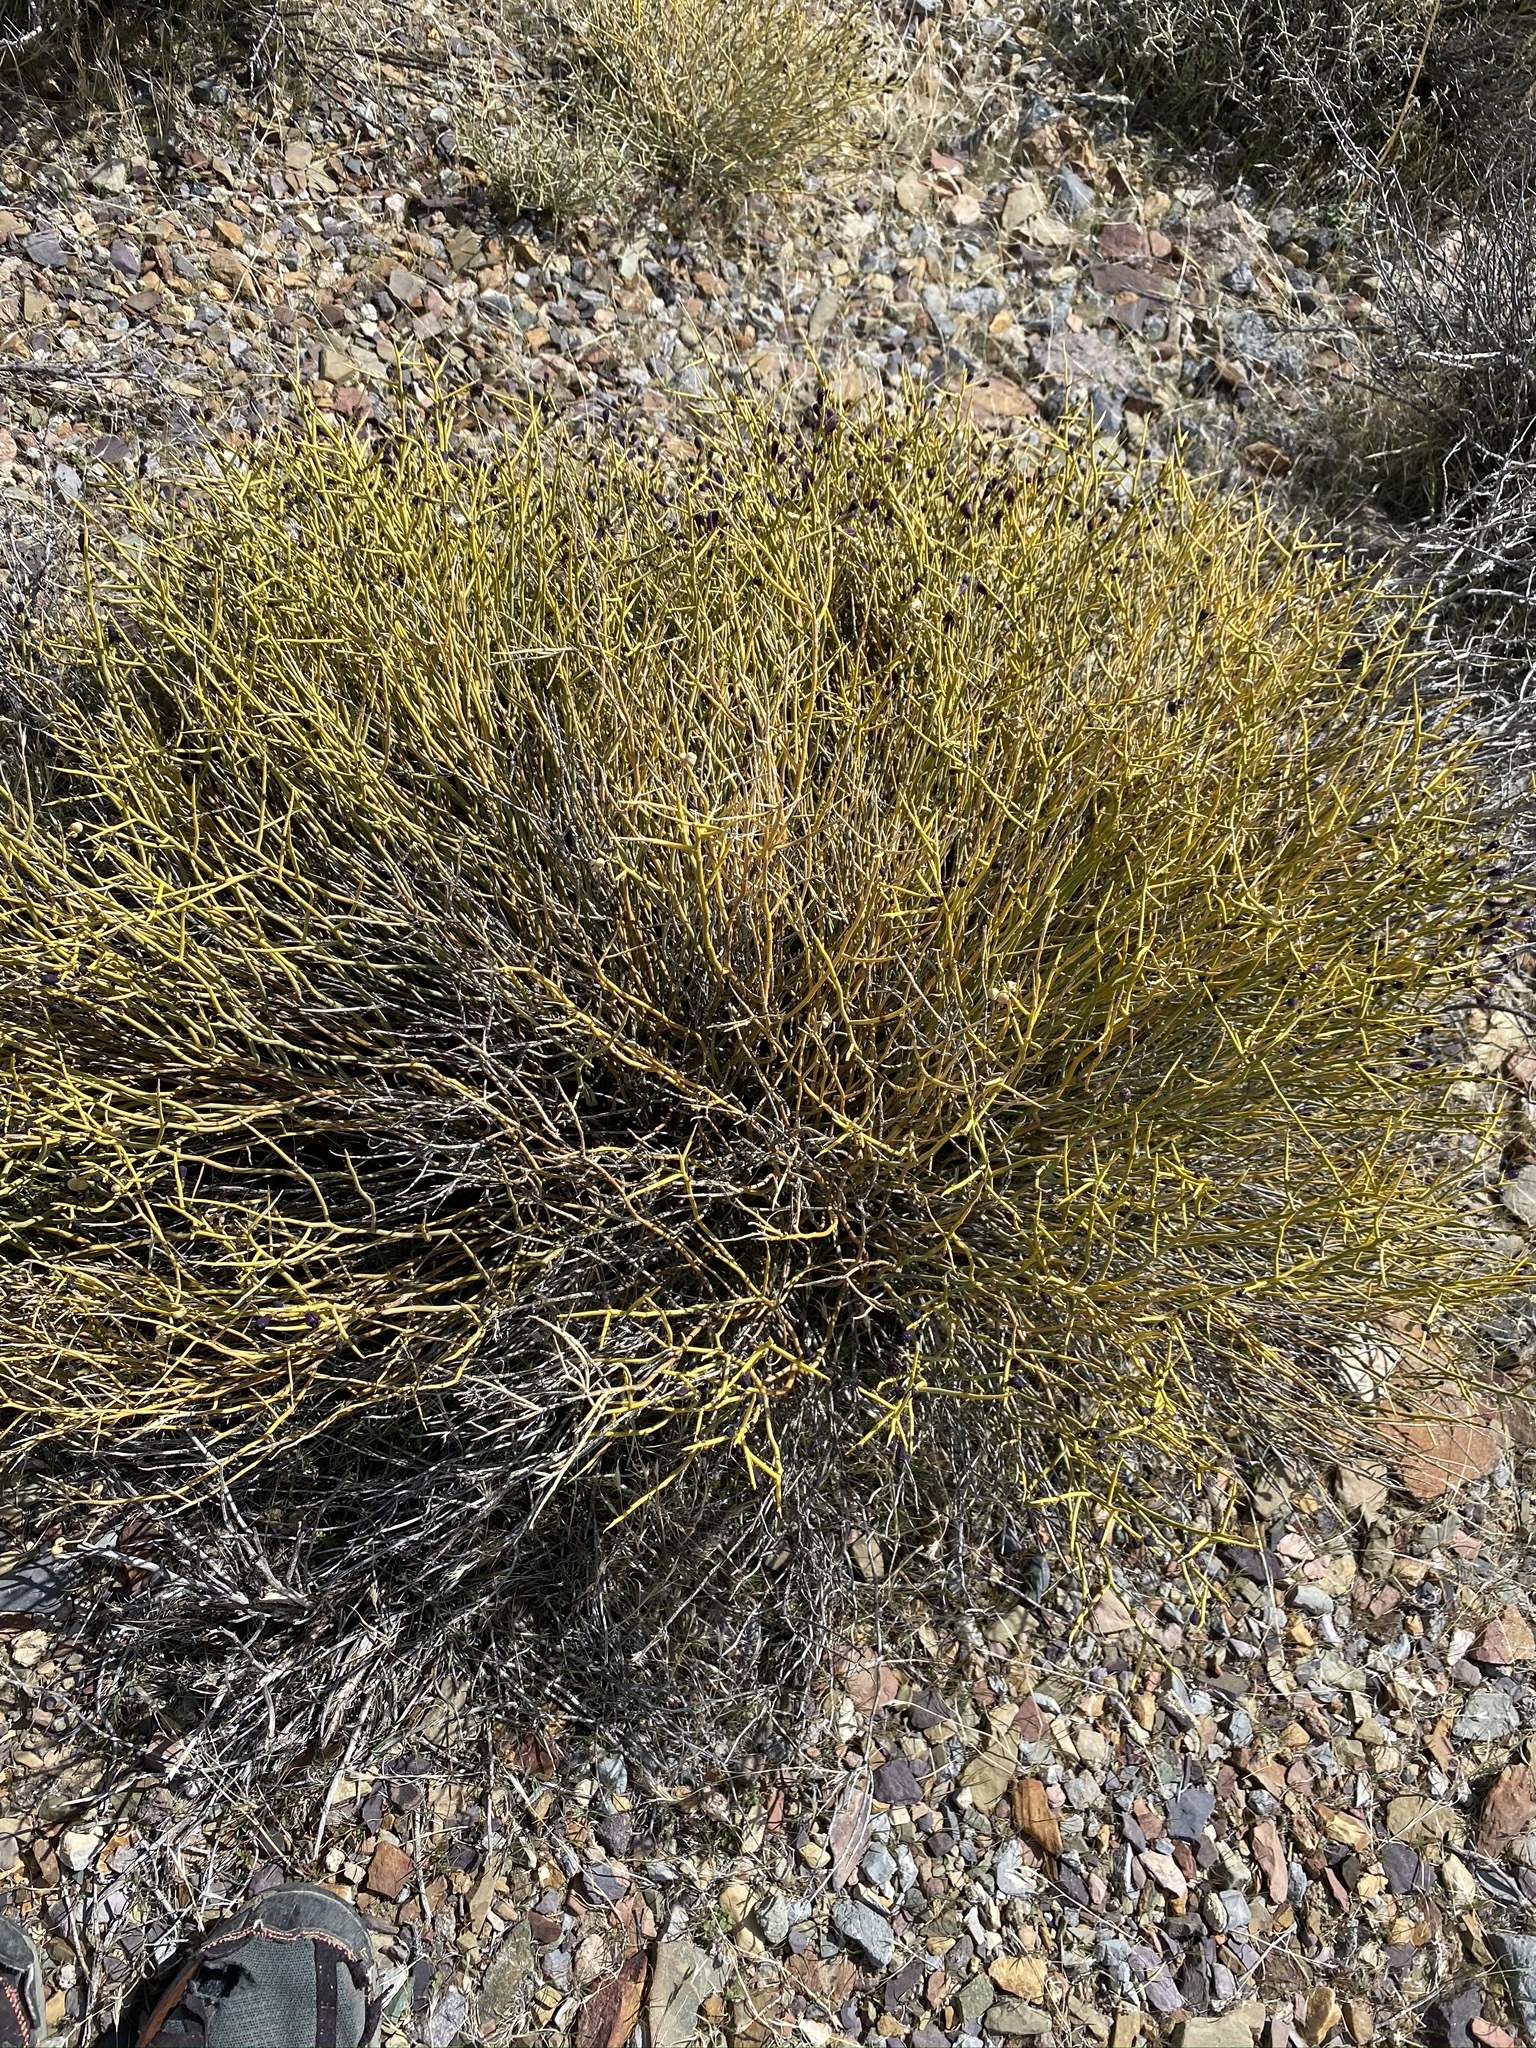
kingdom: Plantae
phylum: Tracheophyta
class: Magnoliopsida
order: Sapindales
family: Rutaceae
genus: Thamnosma
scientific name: Thamnosma montana
